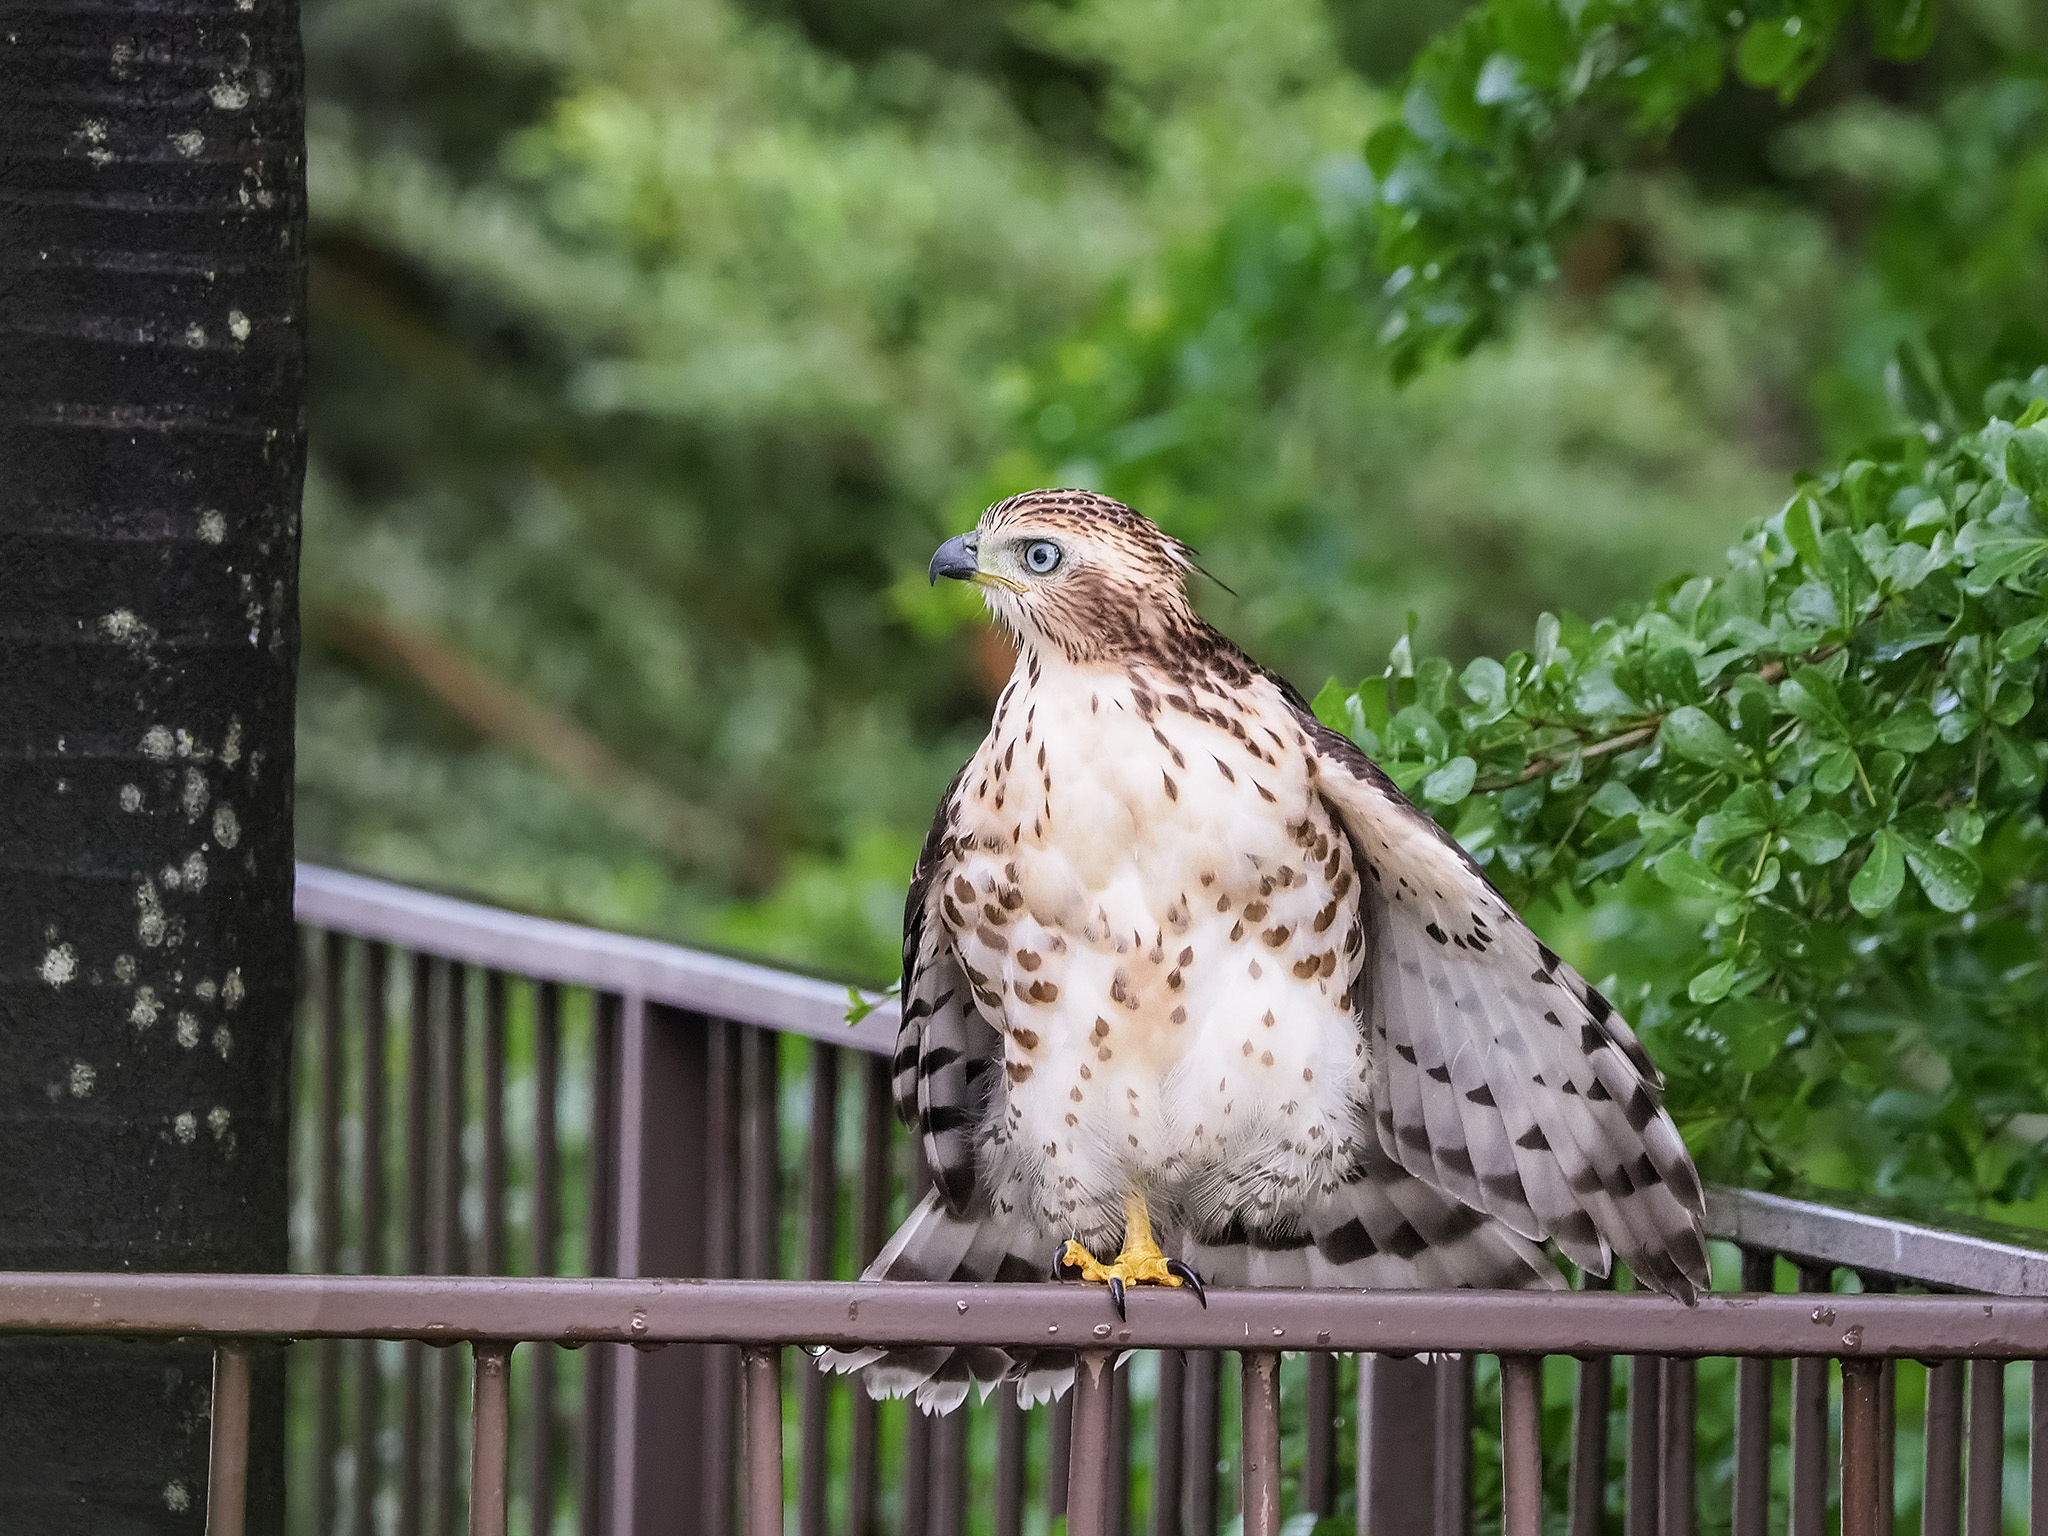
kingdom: Animalia
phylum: Chordata
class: Aves
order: Accipitriformes
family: Accipitridae
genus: Accipiter
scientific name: Accipiter trivirgatus
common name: Crested goshawk
